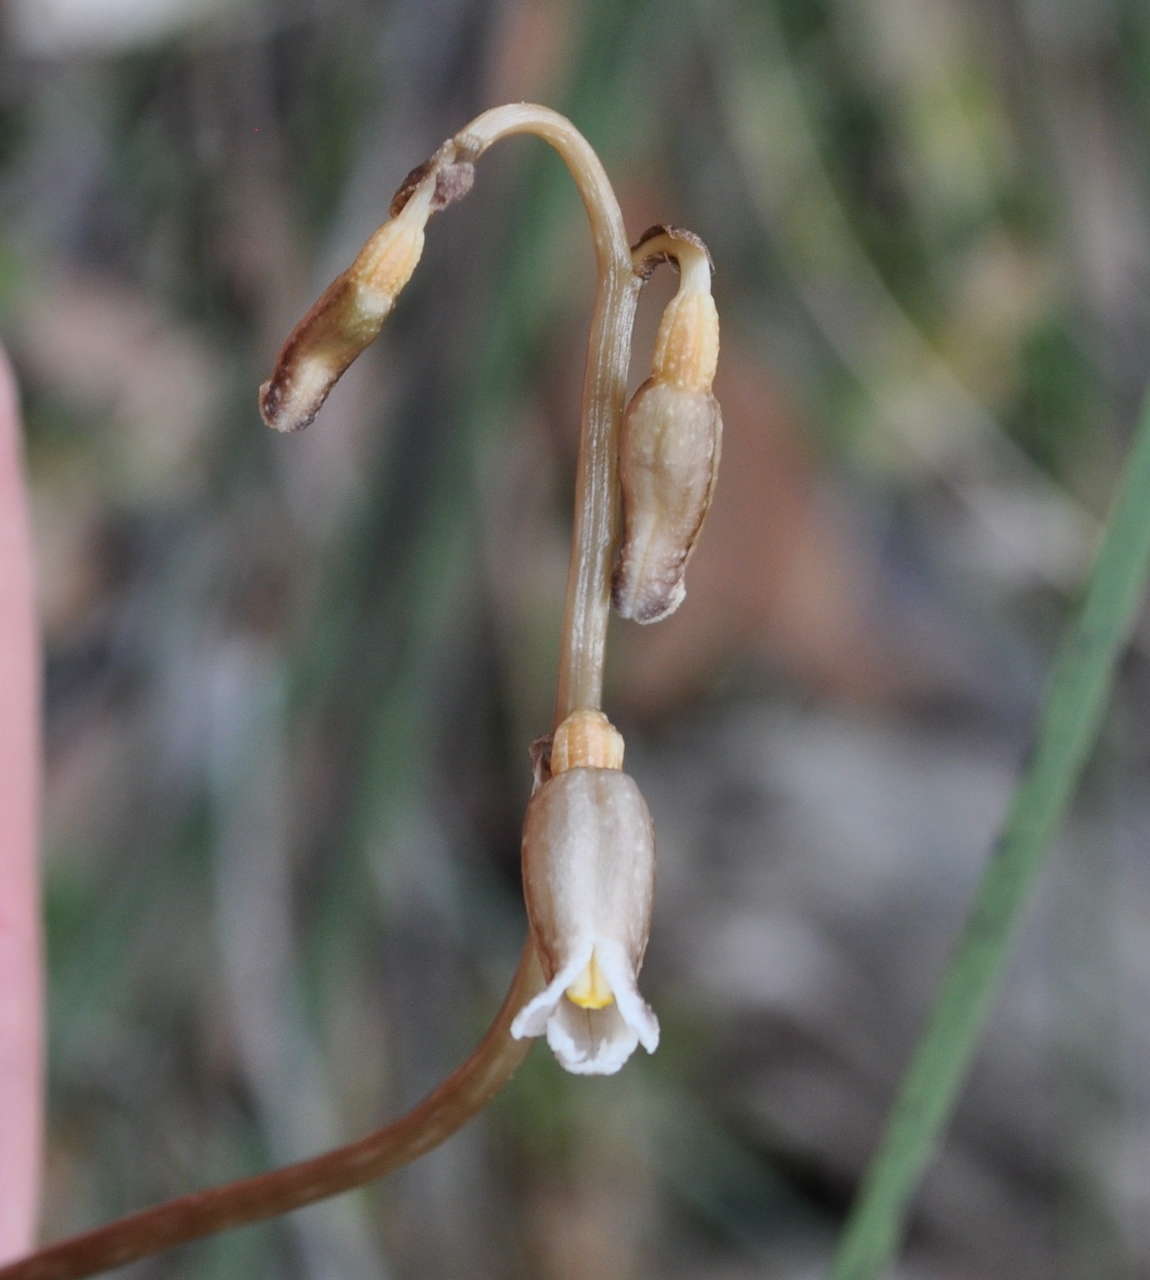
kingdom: Plantae
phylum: Tracheophyta
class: Liliopsida
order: Asparagales
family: Orchidaceae
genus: Gastrodia
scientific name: Gastrodia sesamoides
